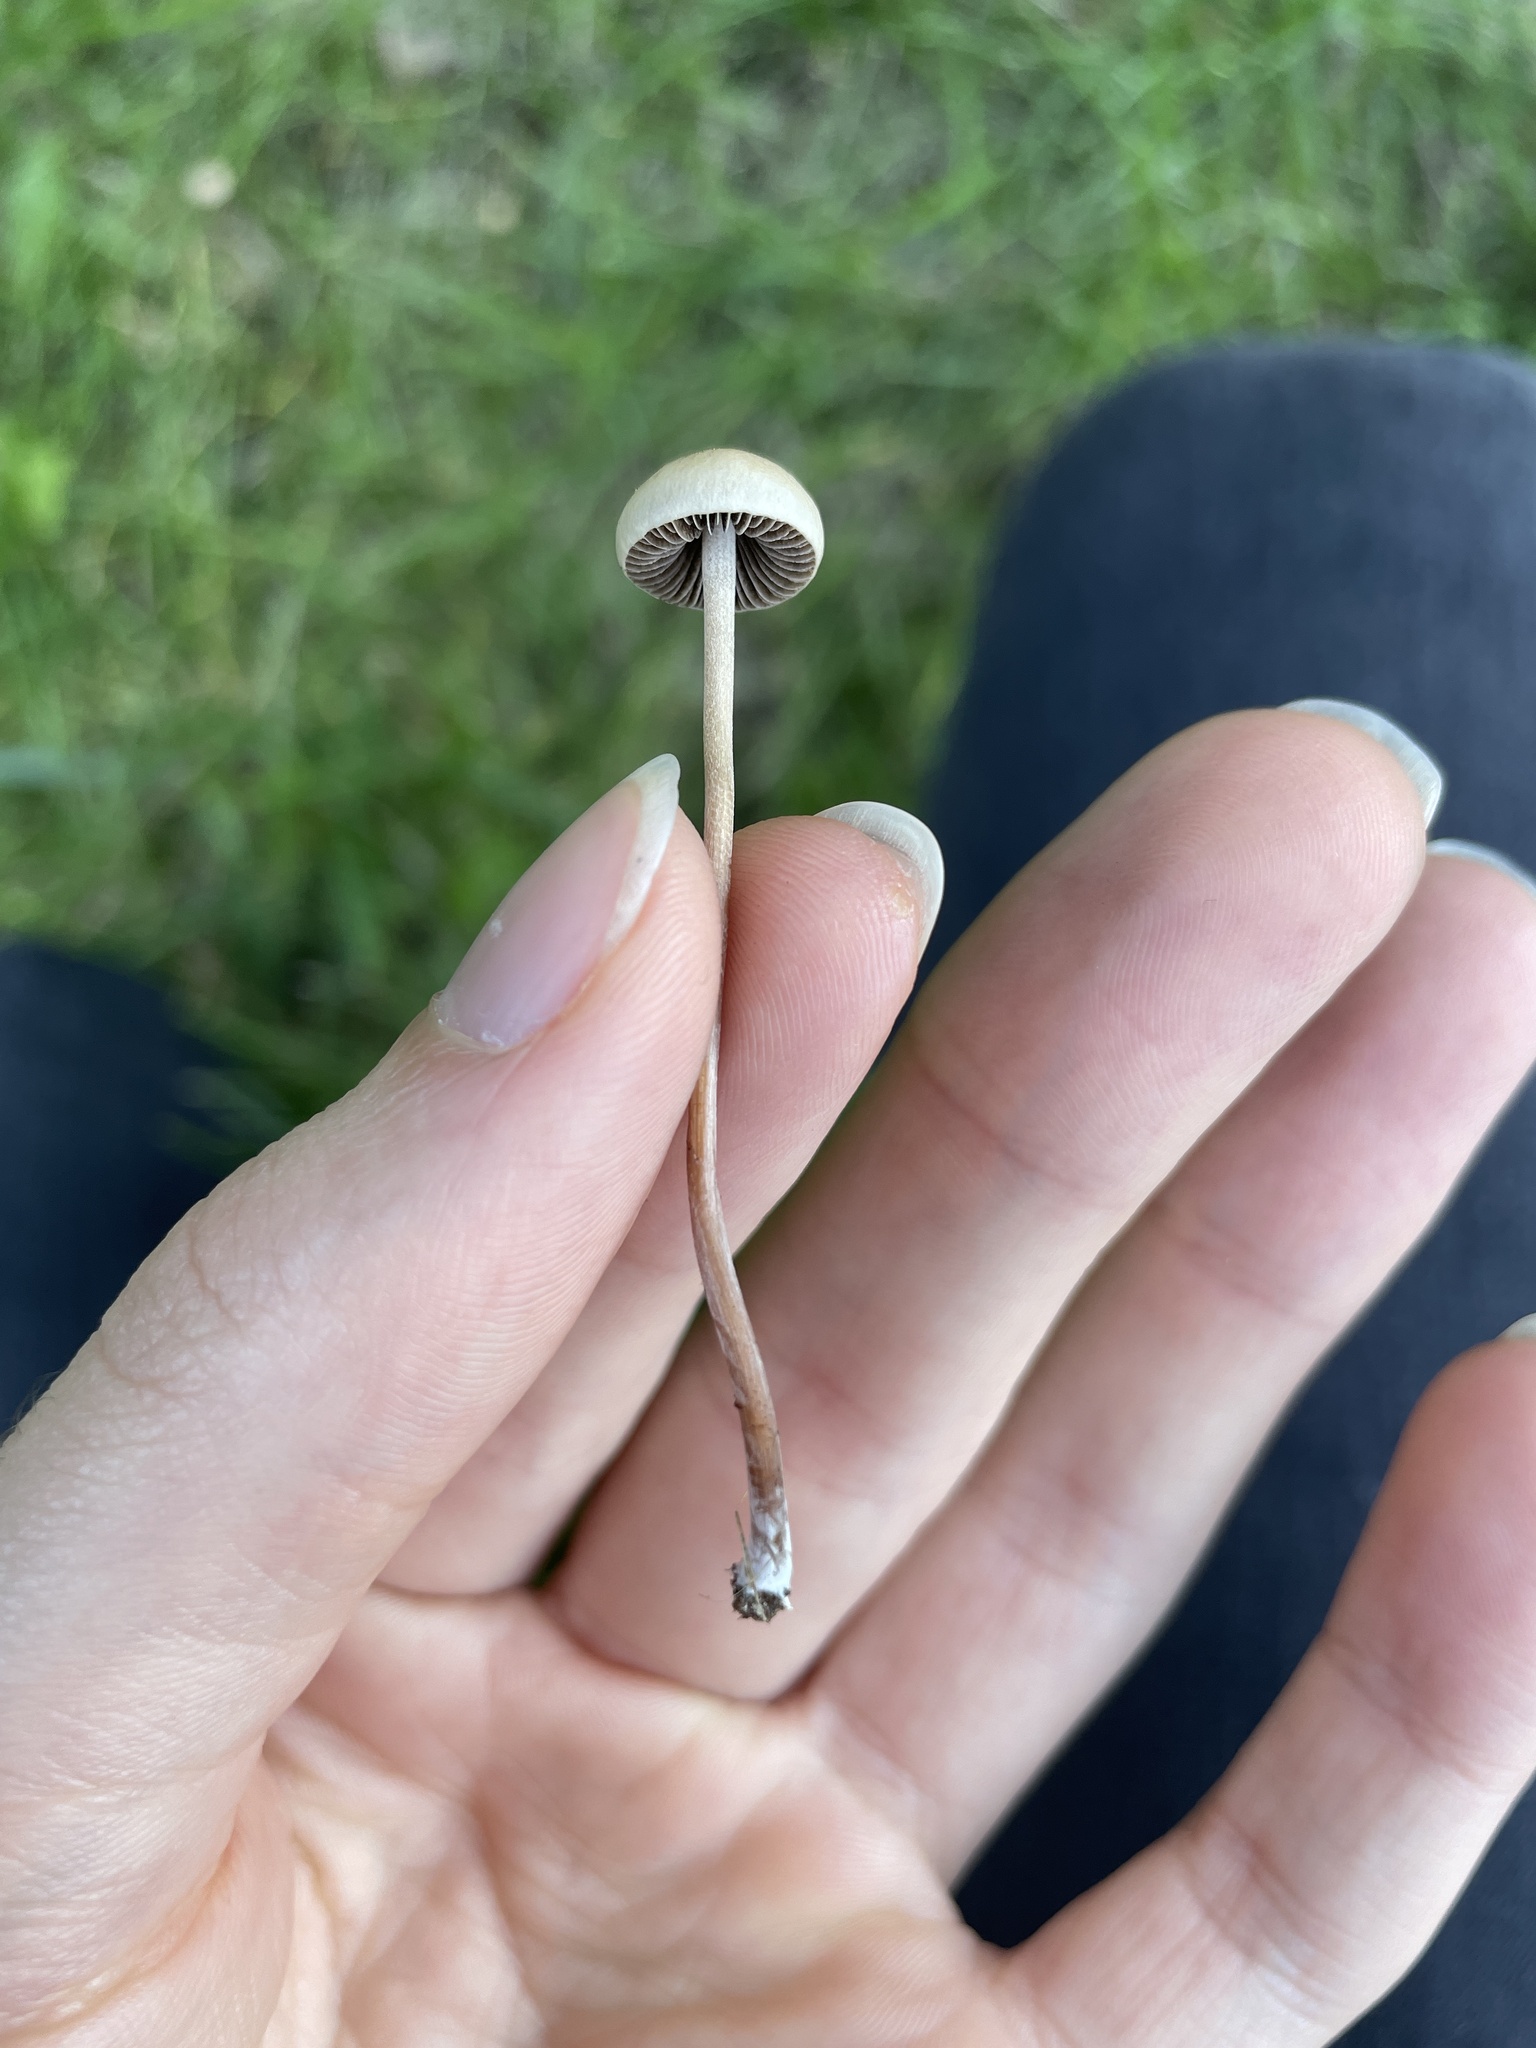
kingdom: Fungi
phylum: Basidiomycota
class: Agaricomycetes
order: Agaricales
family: Bolbitiaceae
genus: Panaeolina
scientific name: Panaeolina foenisecii
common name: Brown hay cap
